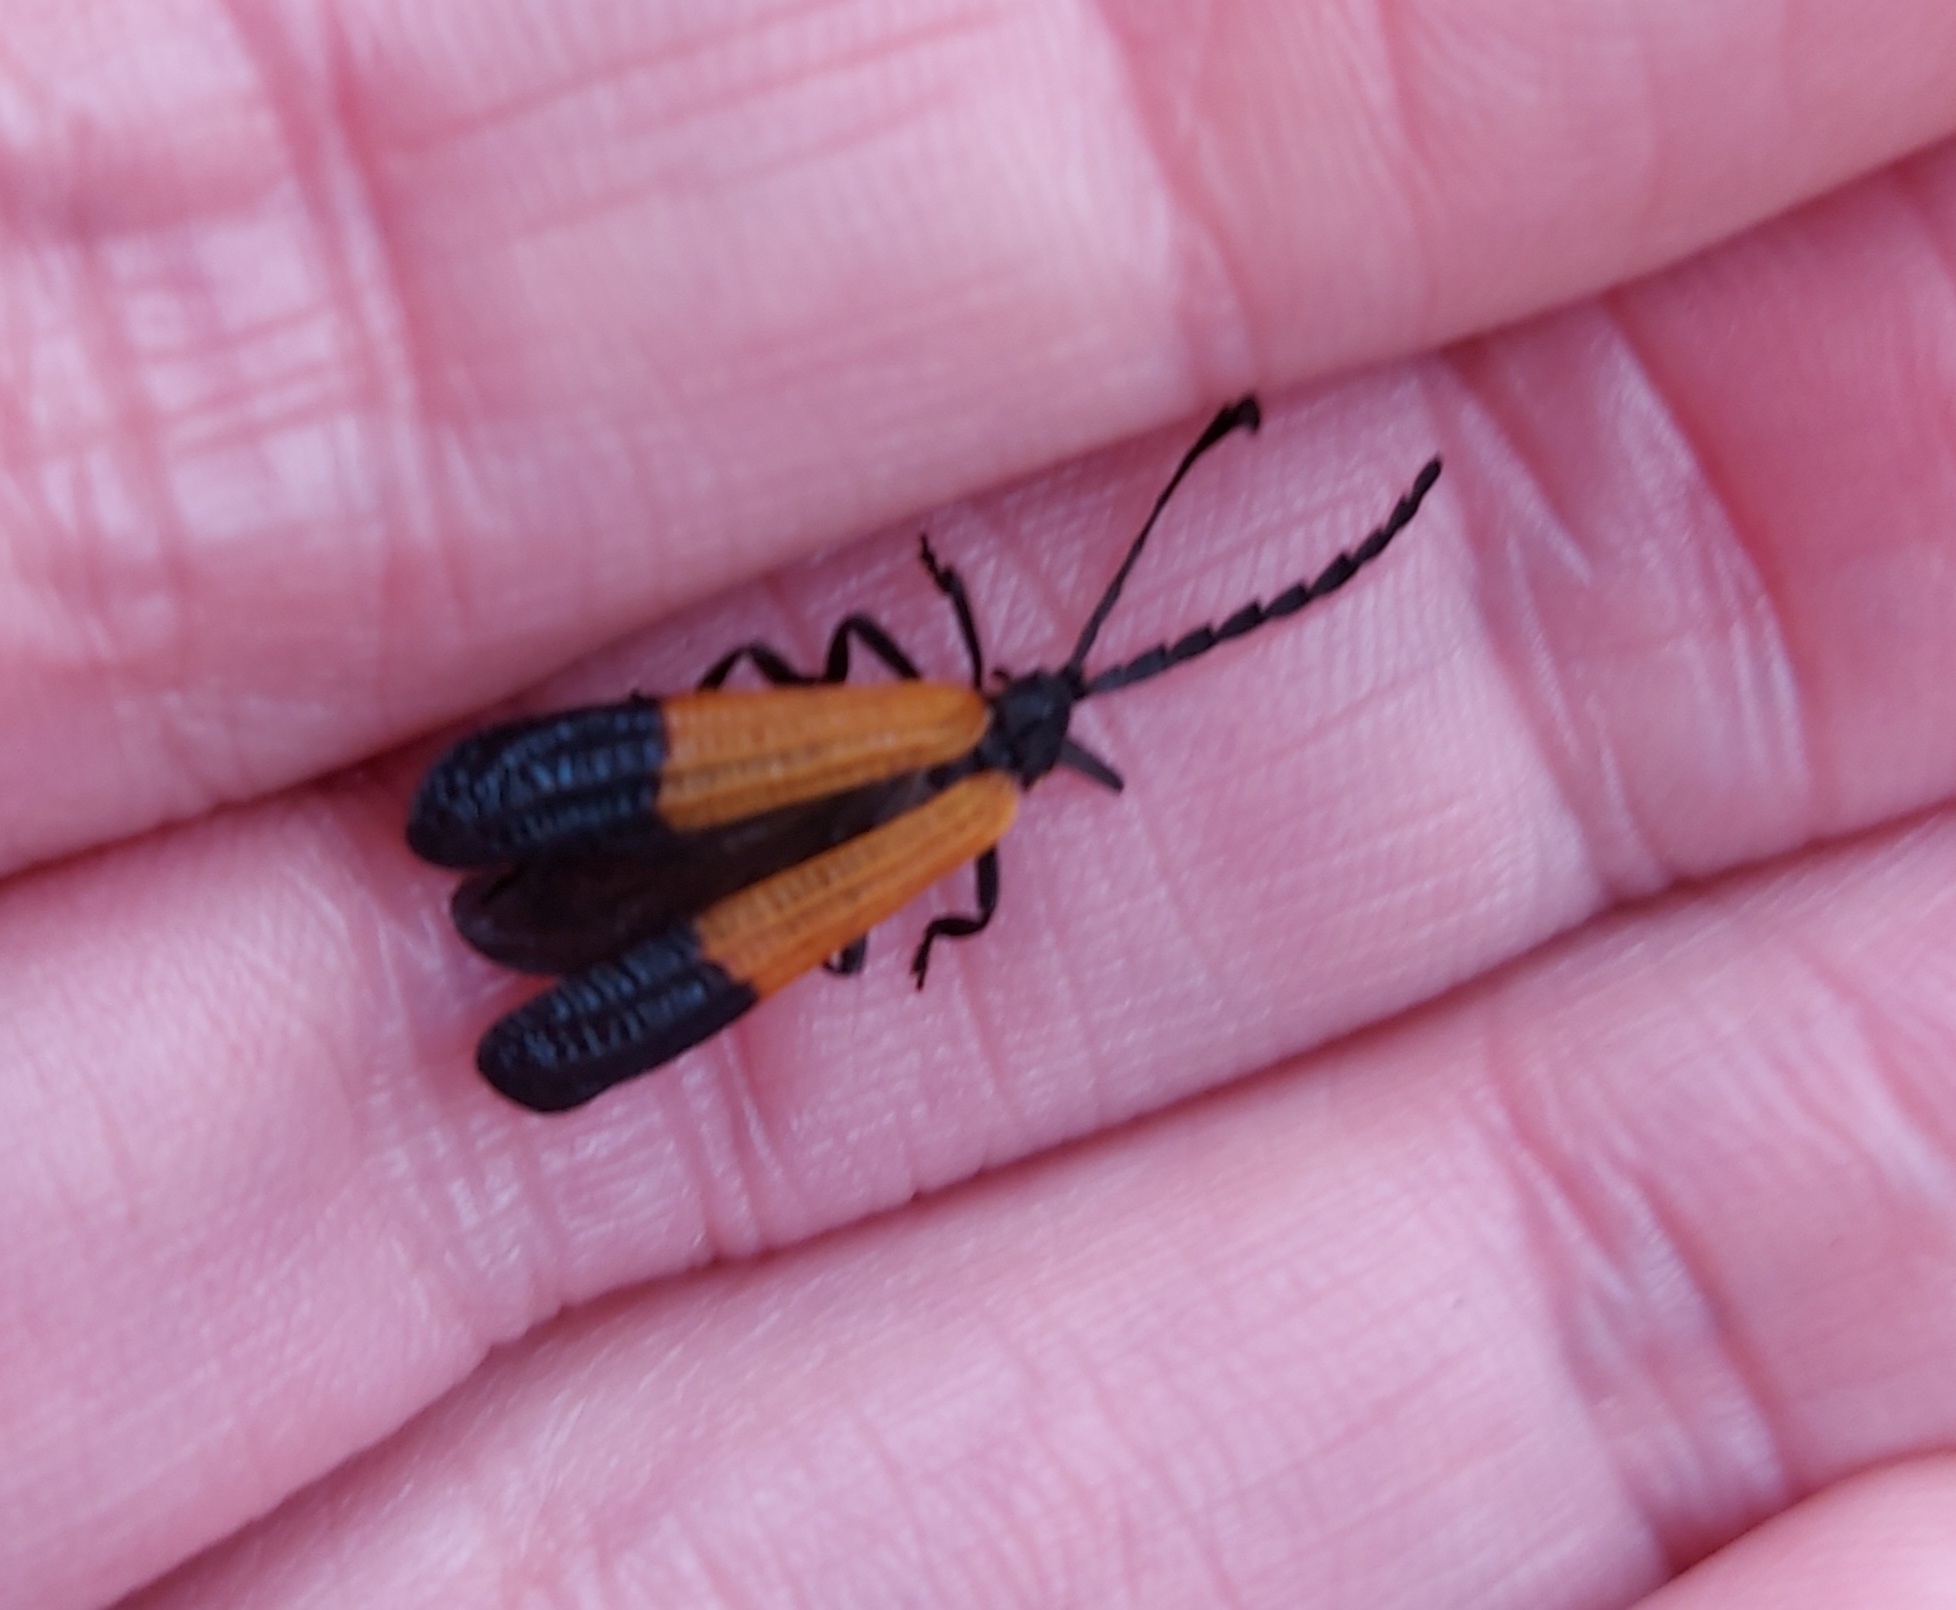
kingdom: Animalia
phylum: Arthropoda
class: Insecta
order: Coleoptera
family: Lycidae
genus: Calopteron
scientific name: Calopteron terminale
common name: End band net-winged beetle
